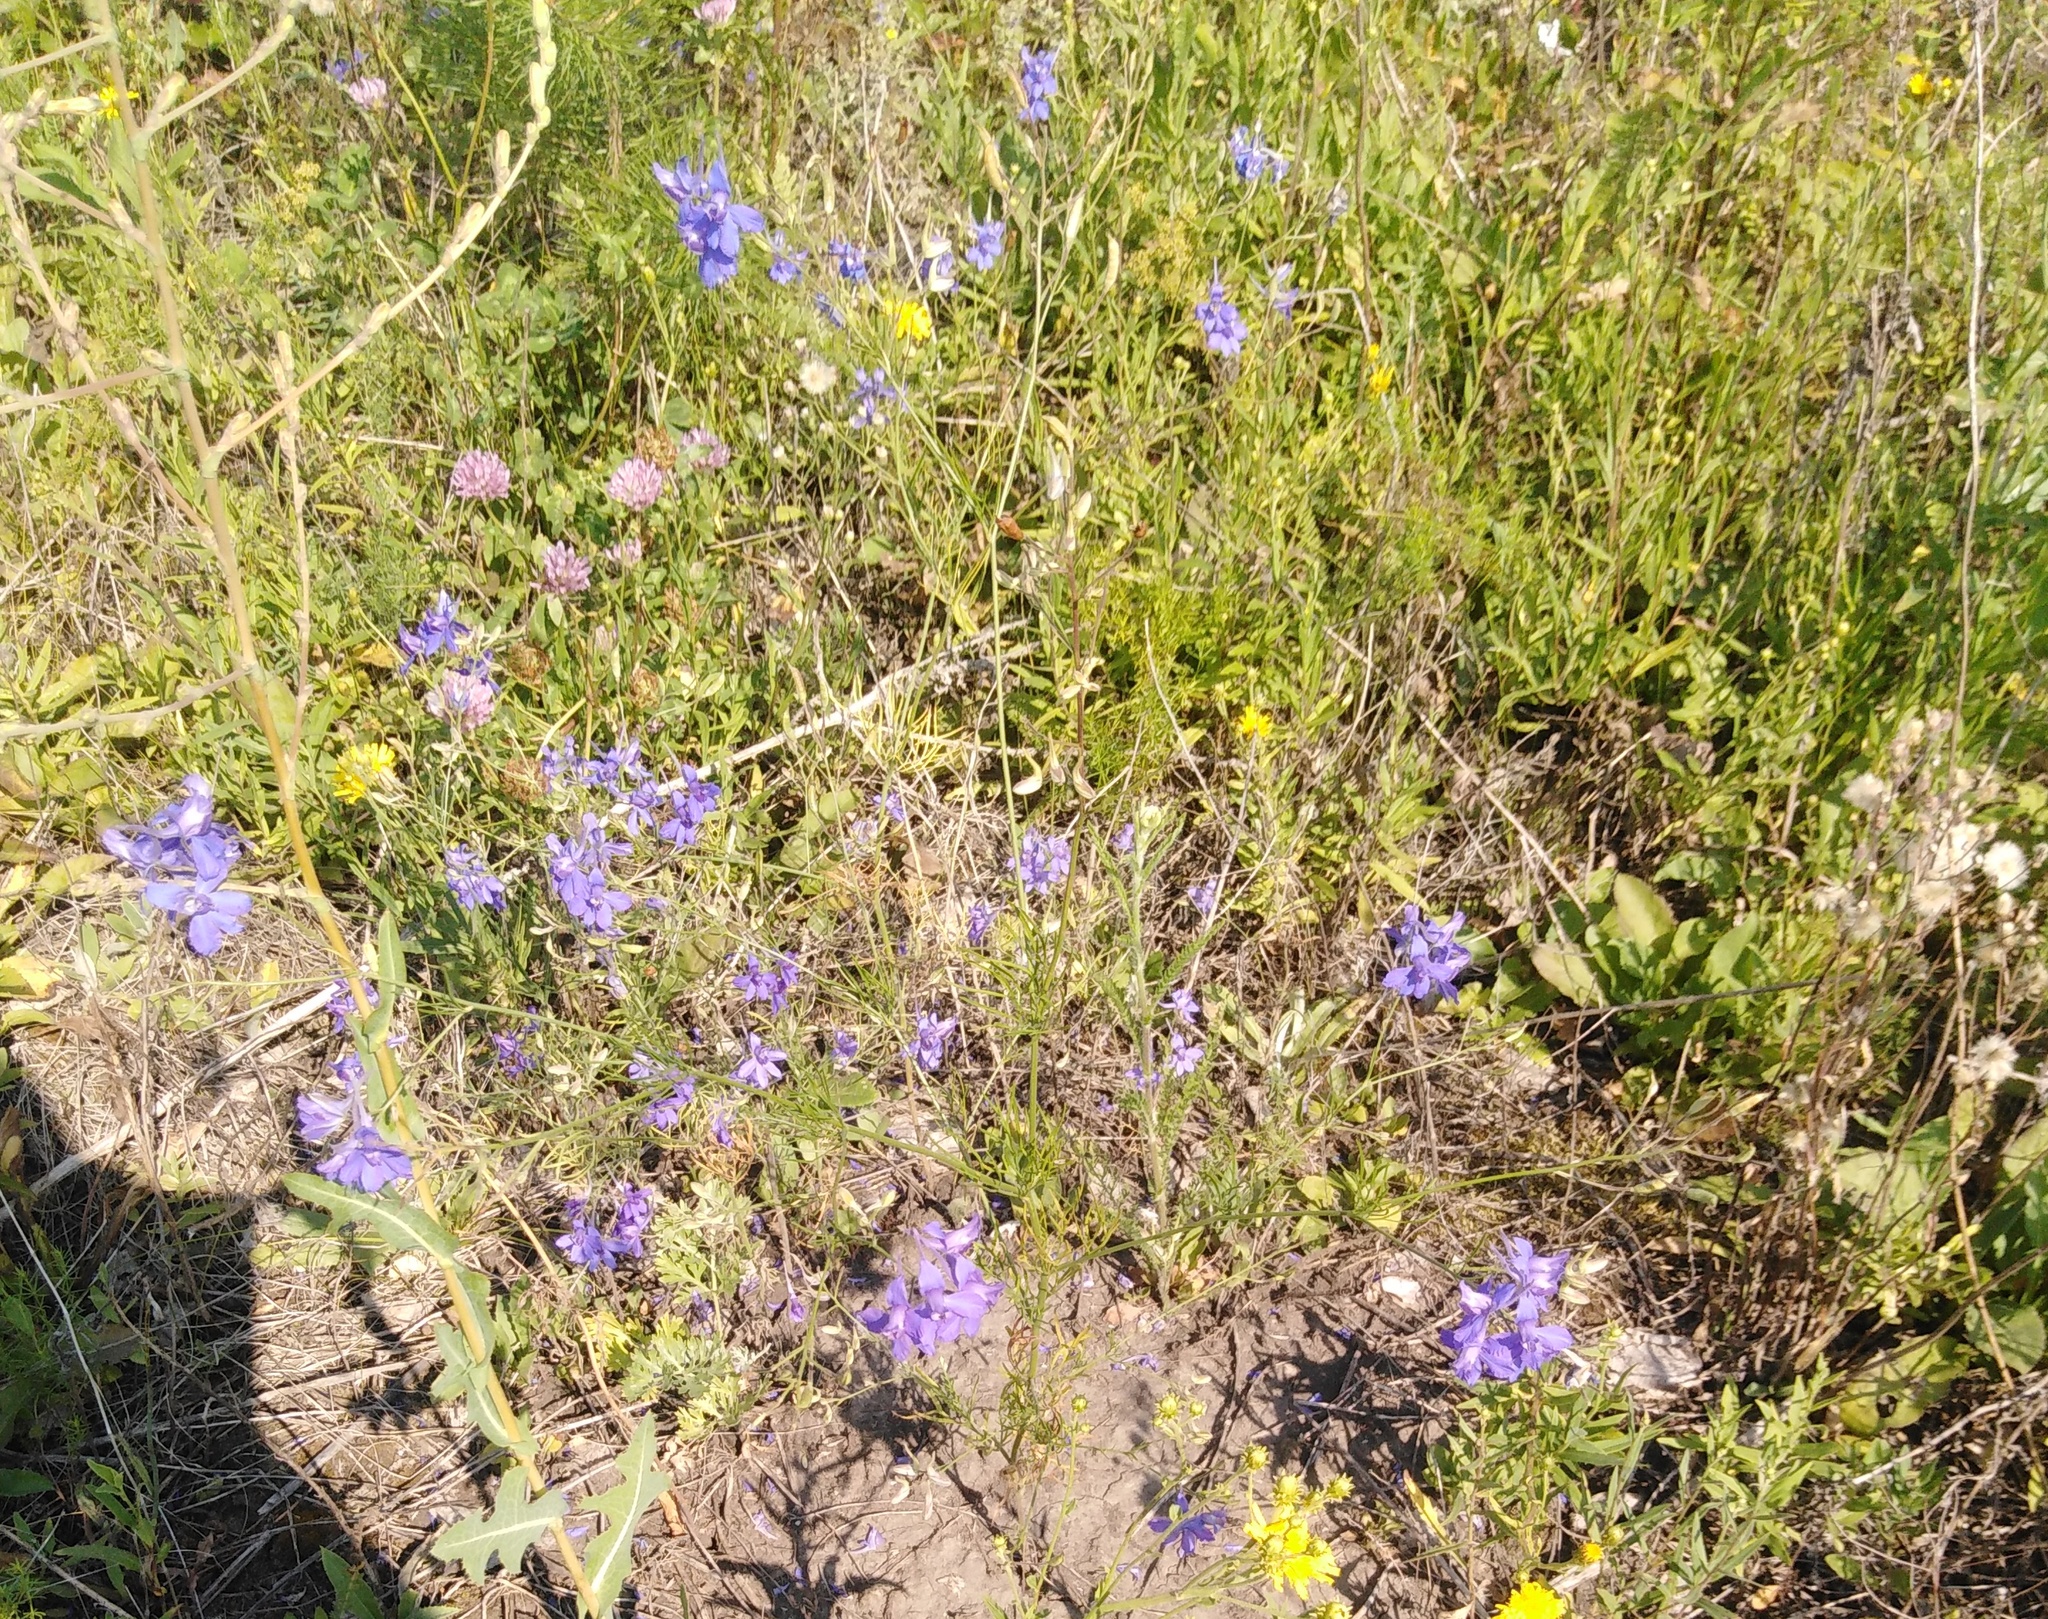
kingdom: Plantae
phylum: Tracheophyta
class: Magnoliopsida
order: Ranunculales
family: Ranunculaceae
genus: Delphinium
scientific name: Delphinium consolida
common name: Branching larkspur
